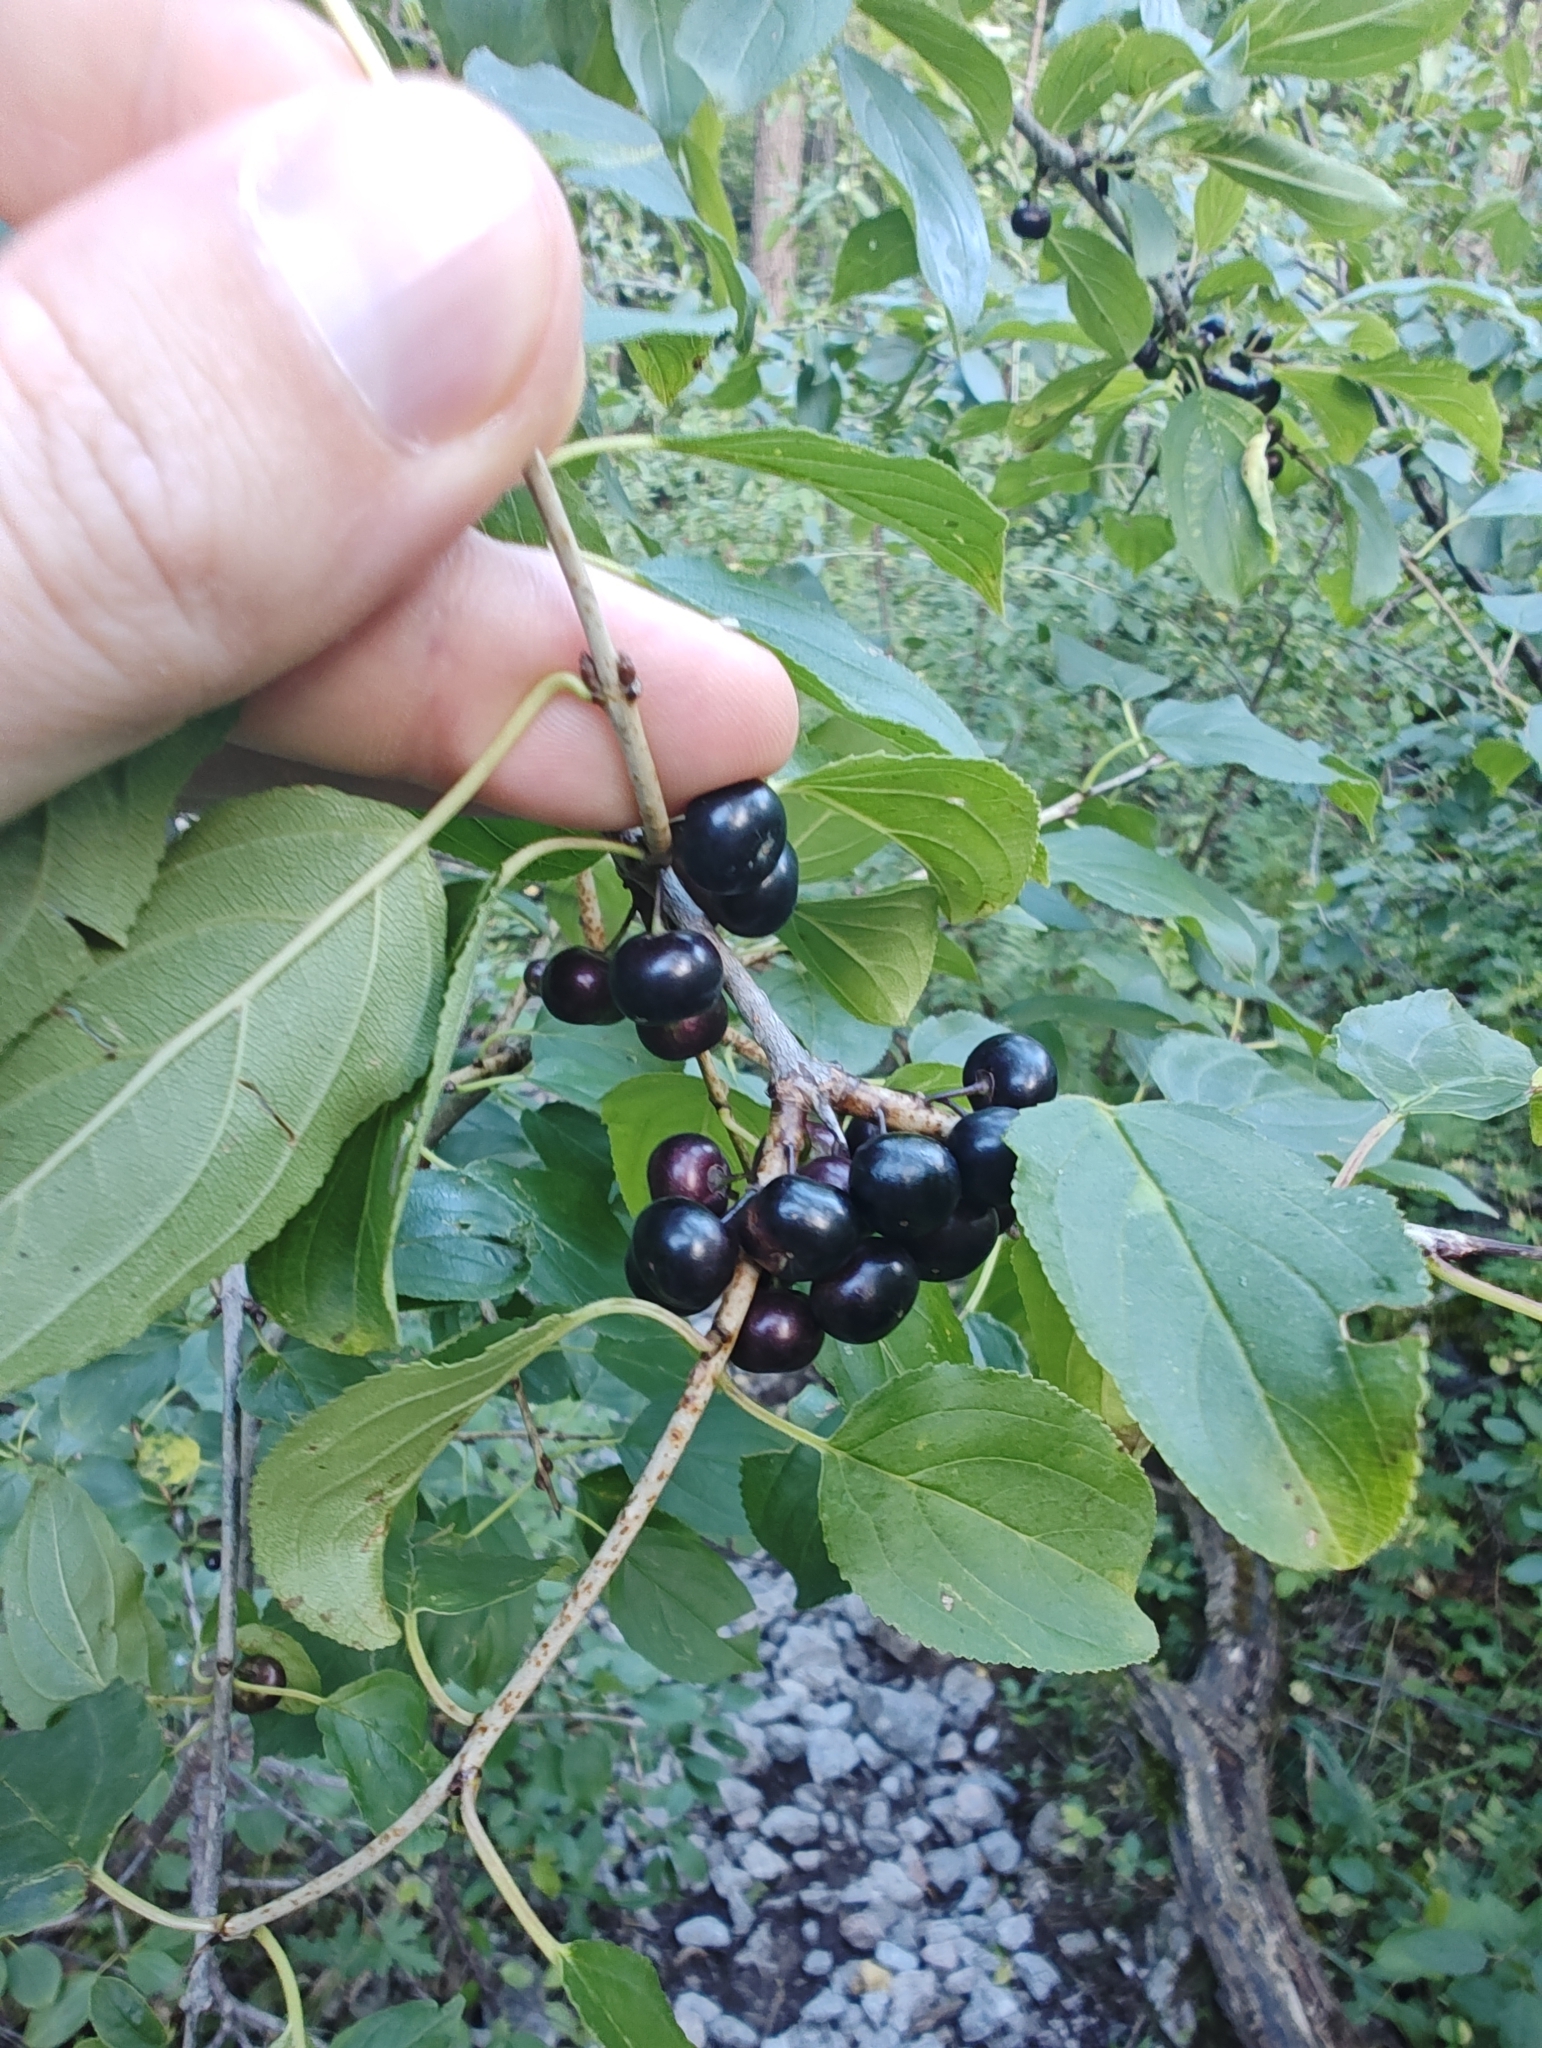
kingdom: Plantae
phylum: Tracheophyta
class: Magnoliopsida
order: Rosales
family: Rhamnaceae
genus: Rhamnus
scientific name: Rhamnus cathartica
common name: Common buckthorn
